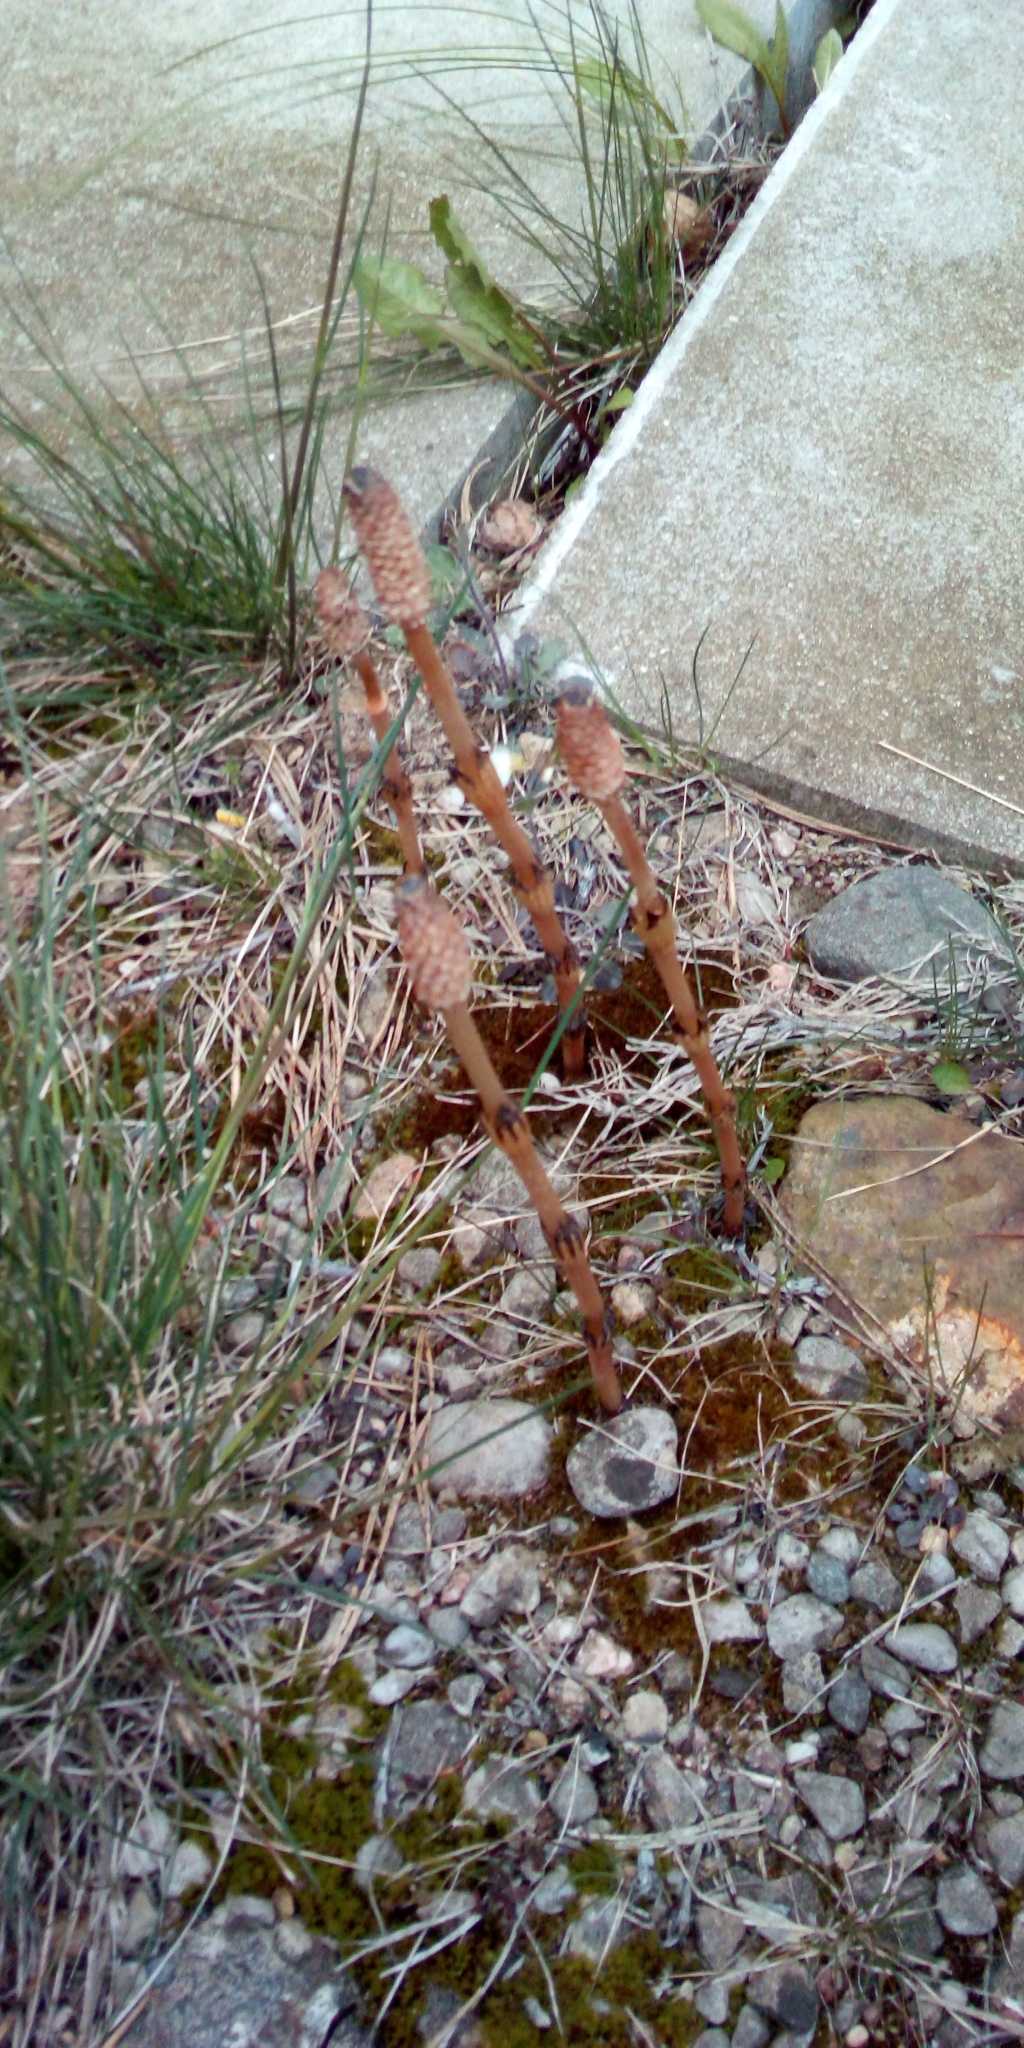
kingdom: Plantae
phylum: Tracheophyta
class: Polypodiopsida
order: Equisetales
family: Equisetaceae
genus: Equisetum
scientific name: Equisetum arvense
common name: Field horsetail
